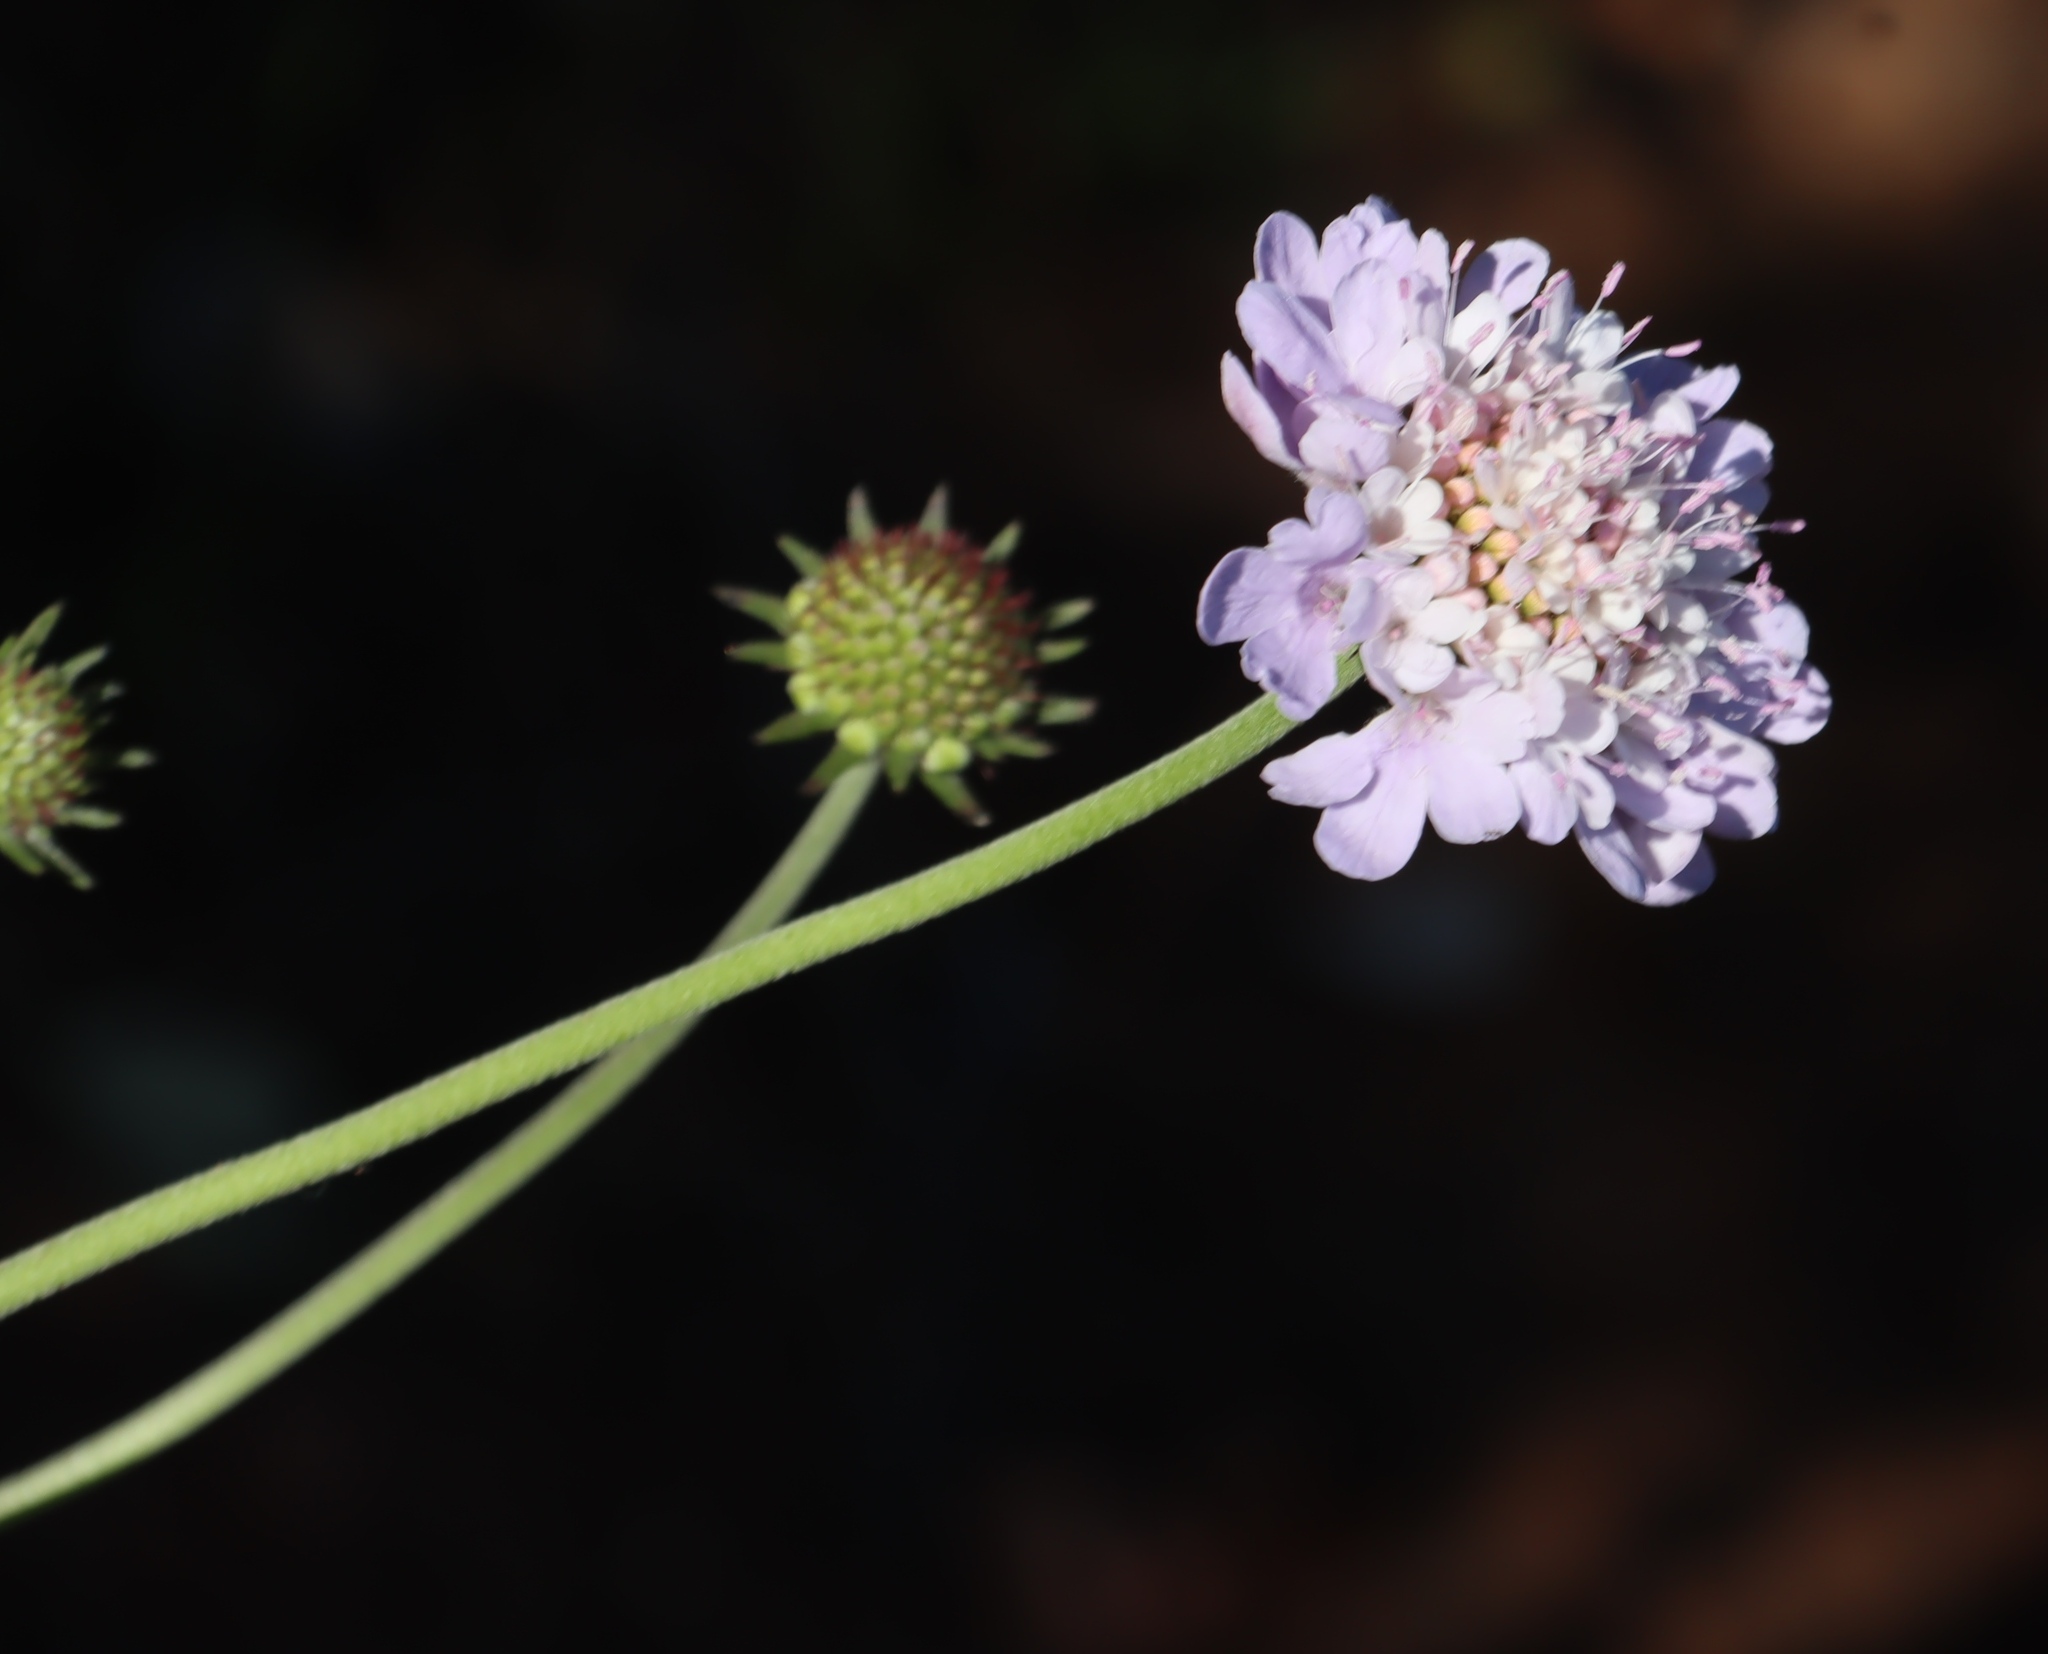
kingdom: Plantae
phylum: Tracheophyta
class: Magnoliopsida
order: Dipsacales
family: Caprifoliaceae
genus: Scabiosa
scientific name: Scabiosa africana
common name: Cape scabious
